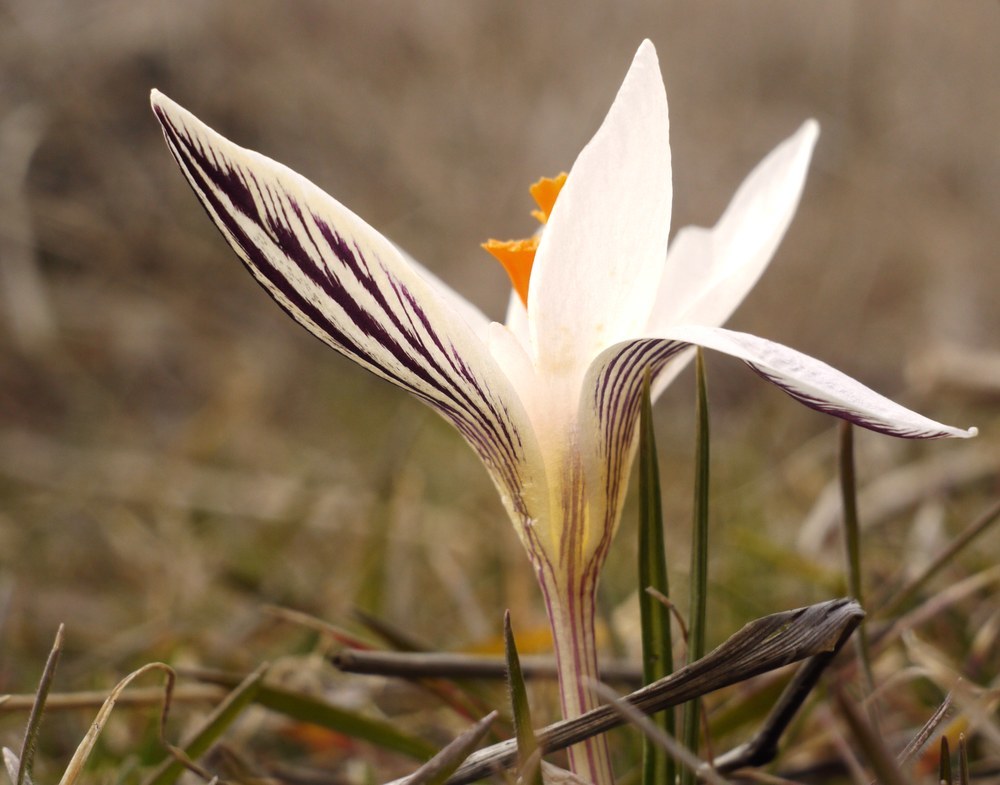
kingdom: Plantae
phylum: Tracheophyta
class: Liliopsida
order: Asparagales
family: Iridaceae
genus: Crocus
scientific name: Crocus reticulatus
